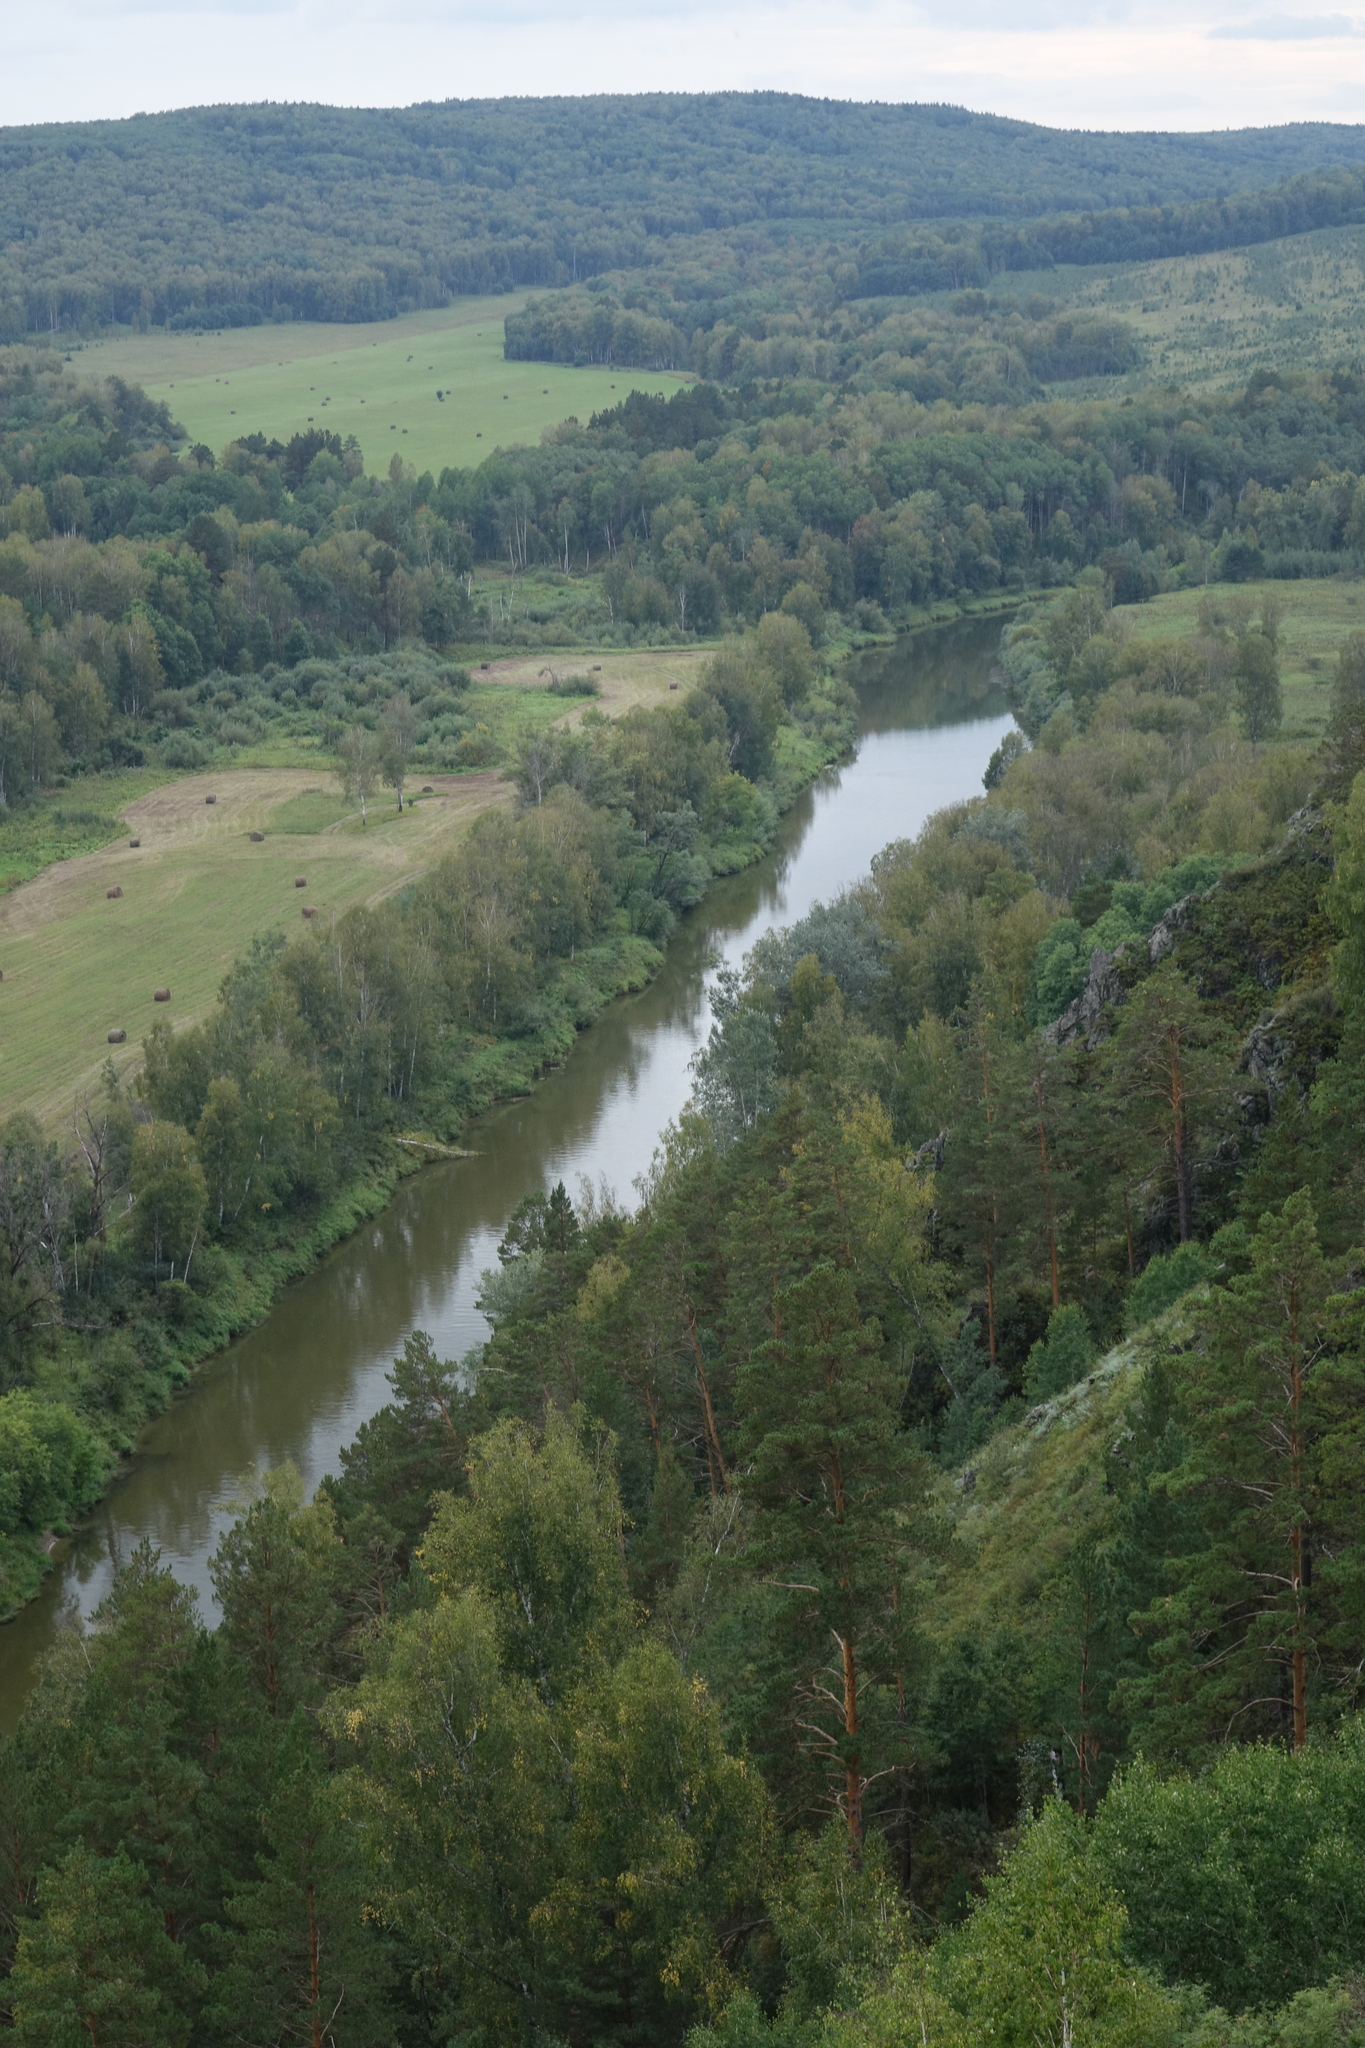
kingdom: Plantae
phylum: Tracheophyta
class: Pinopsida
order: Pinales
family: Pinaceae
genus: Pinus
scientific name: Pinus sylvestris
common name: Scots pine
